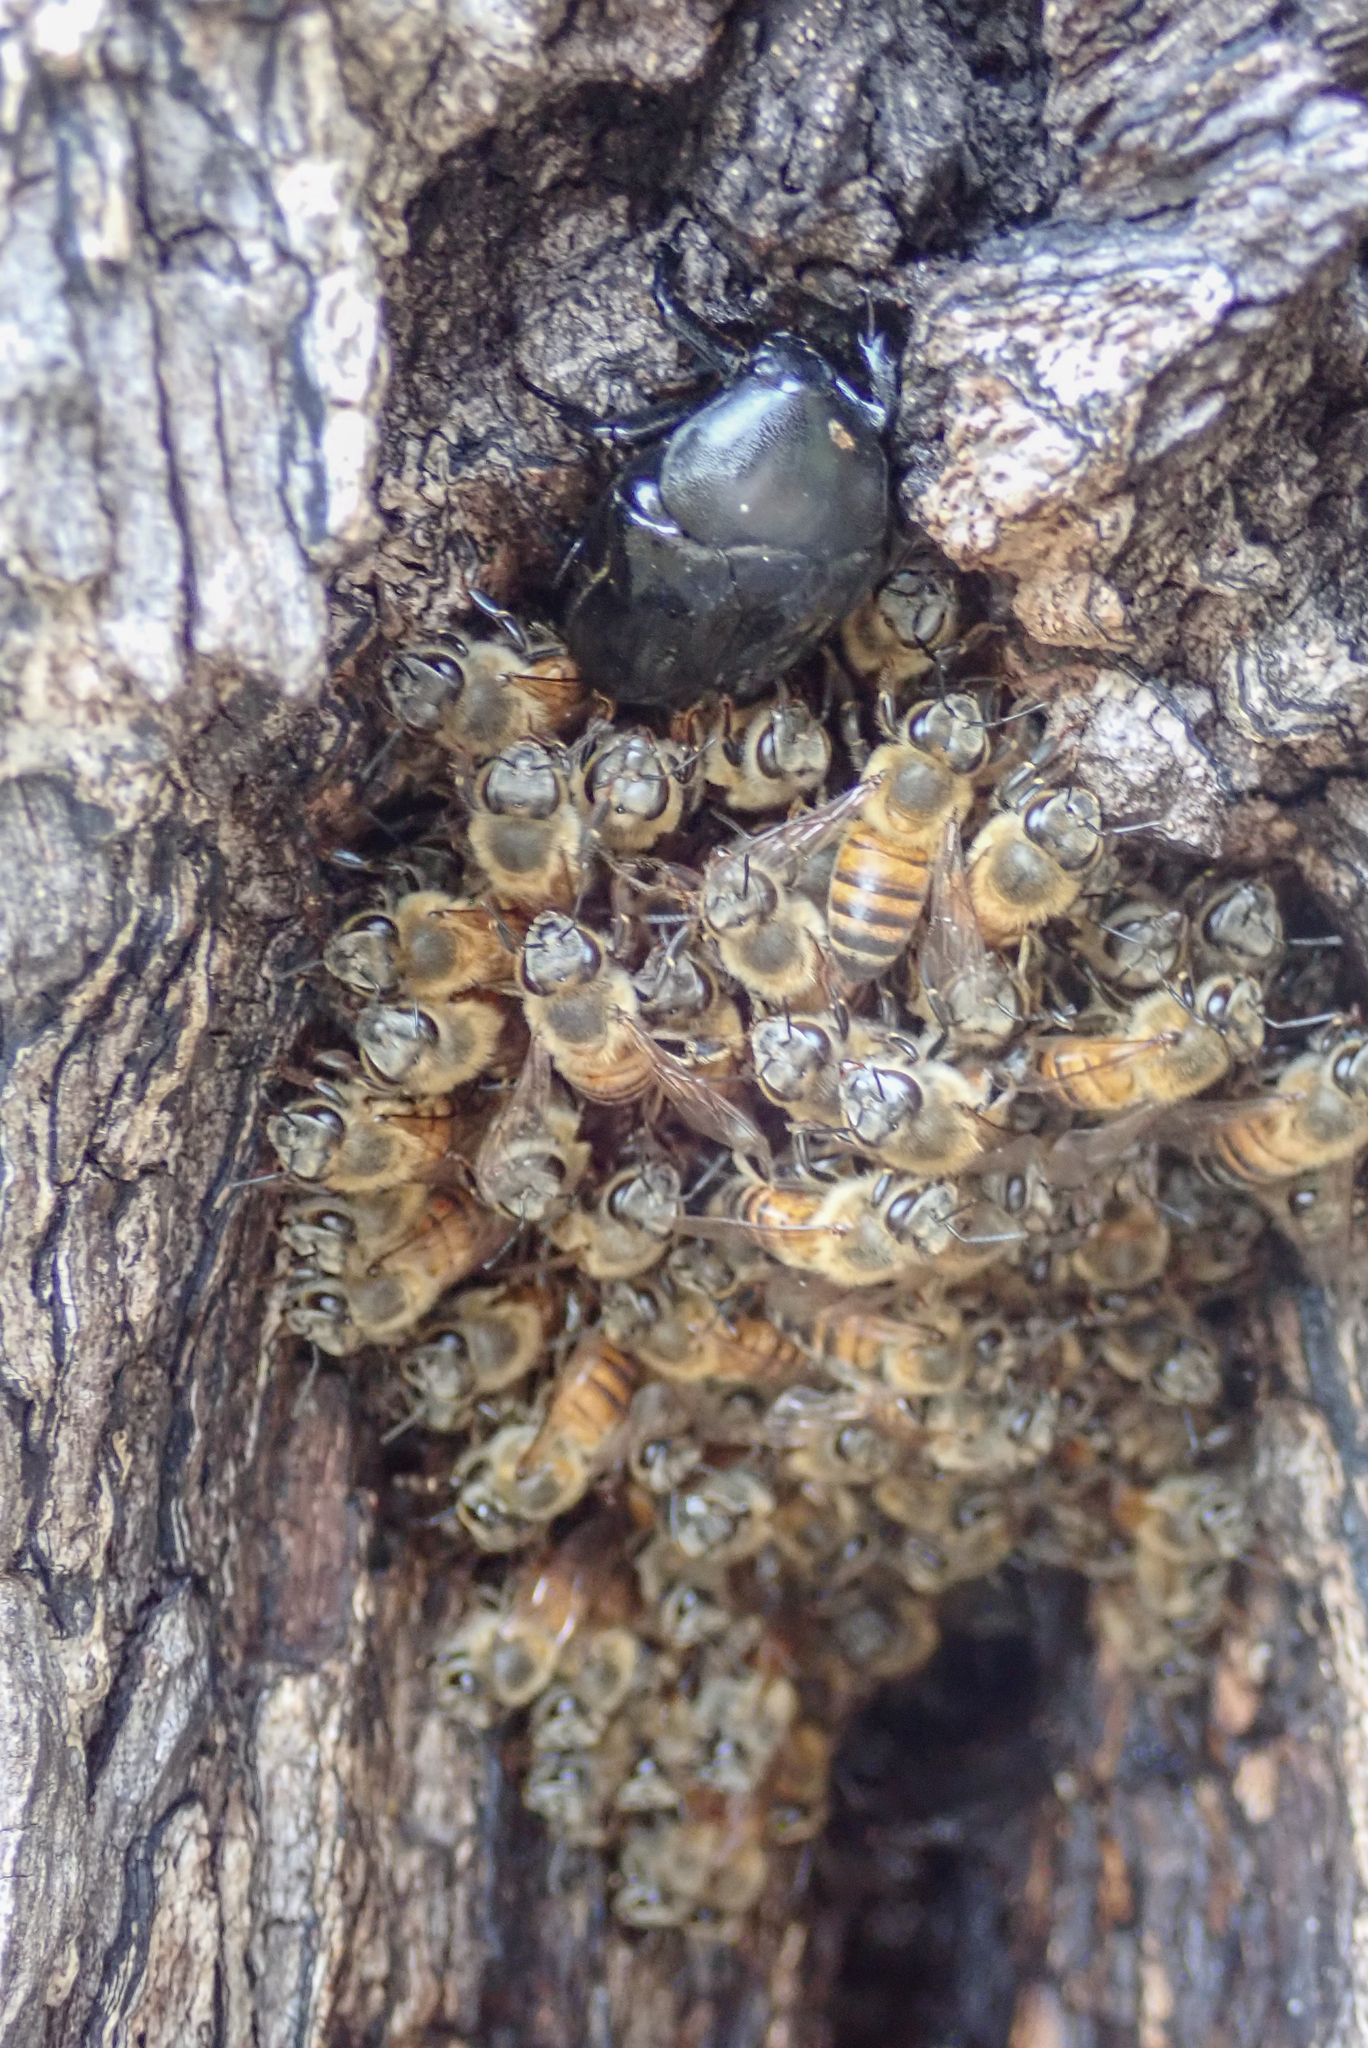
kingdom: Animalia
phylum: Arthropoda
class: Insecta
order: Hymenoptera
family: Apidae
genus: Apis
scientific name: Apis mellifera
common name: Honey bee
